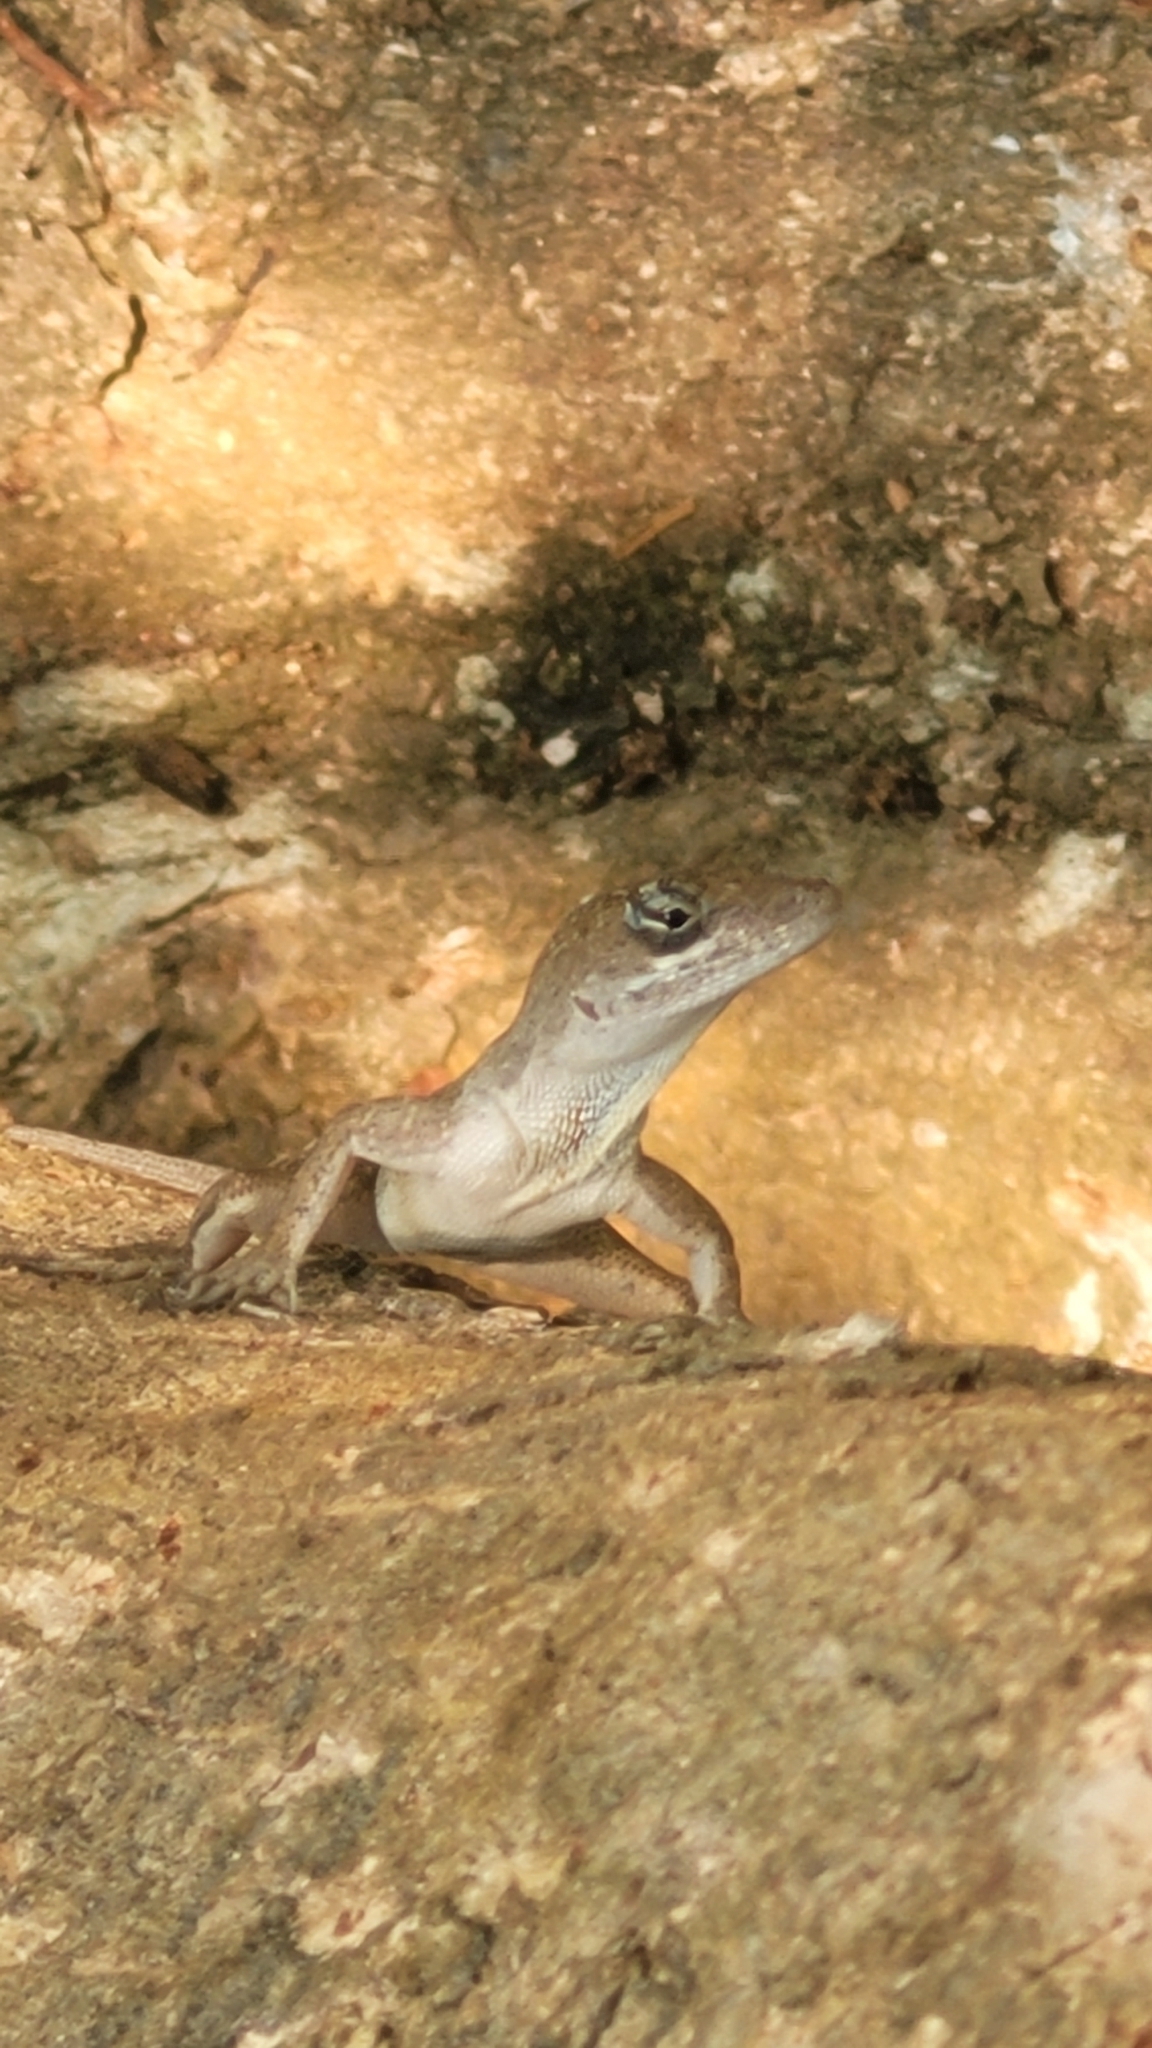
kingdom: Animalia
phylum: Chordata
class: Squamata
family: Dactyloidae
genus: Anolis
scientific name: Anolis bicaorum
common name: Bay islands anole
